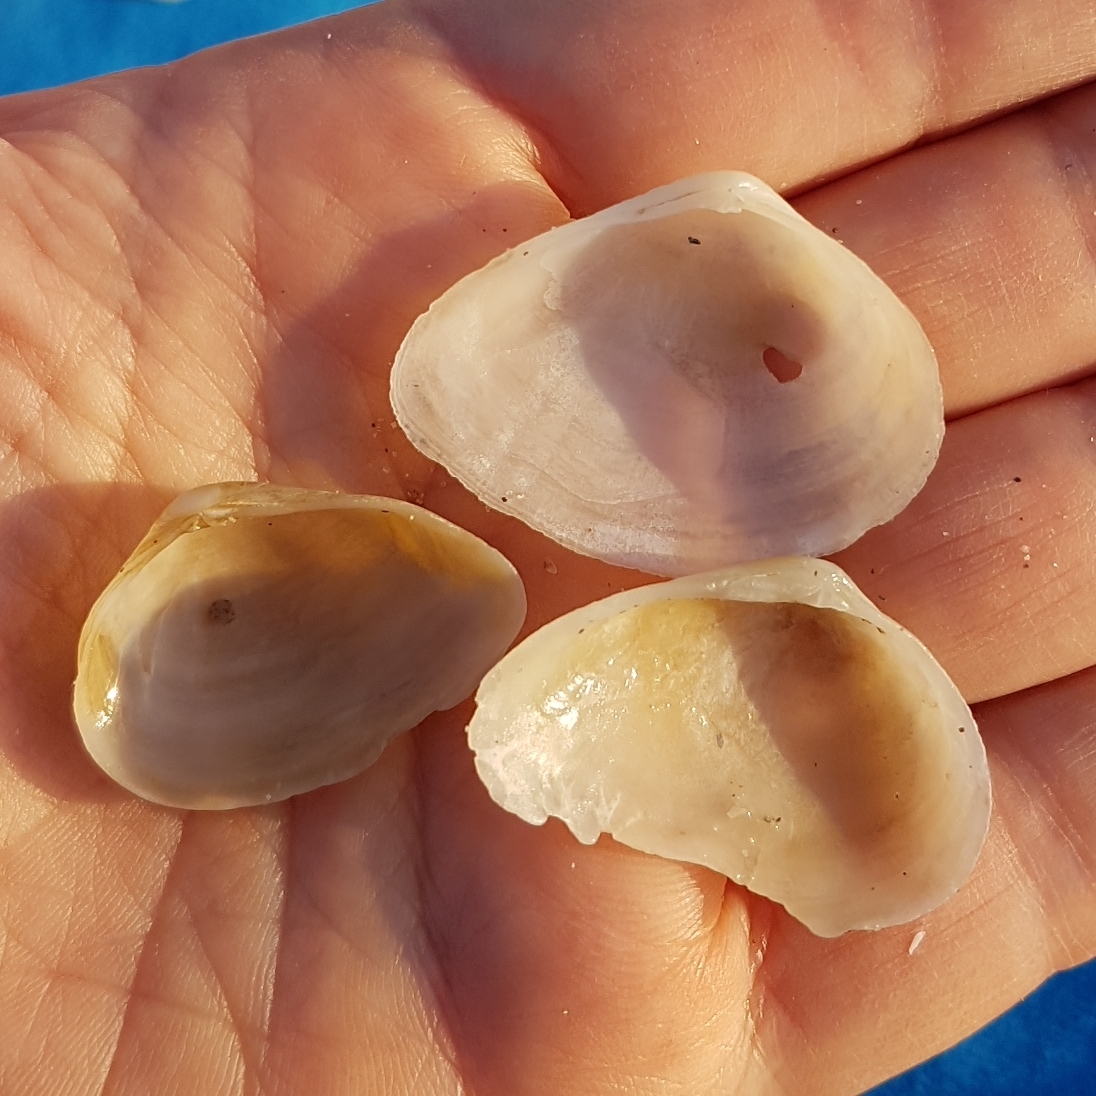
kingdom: Animalia
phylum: Mollusca
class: Bivalvia
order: Cardiida
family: Tellinidae
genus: Gastrana
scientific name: Gastrana fragilis
